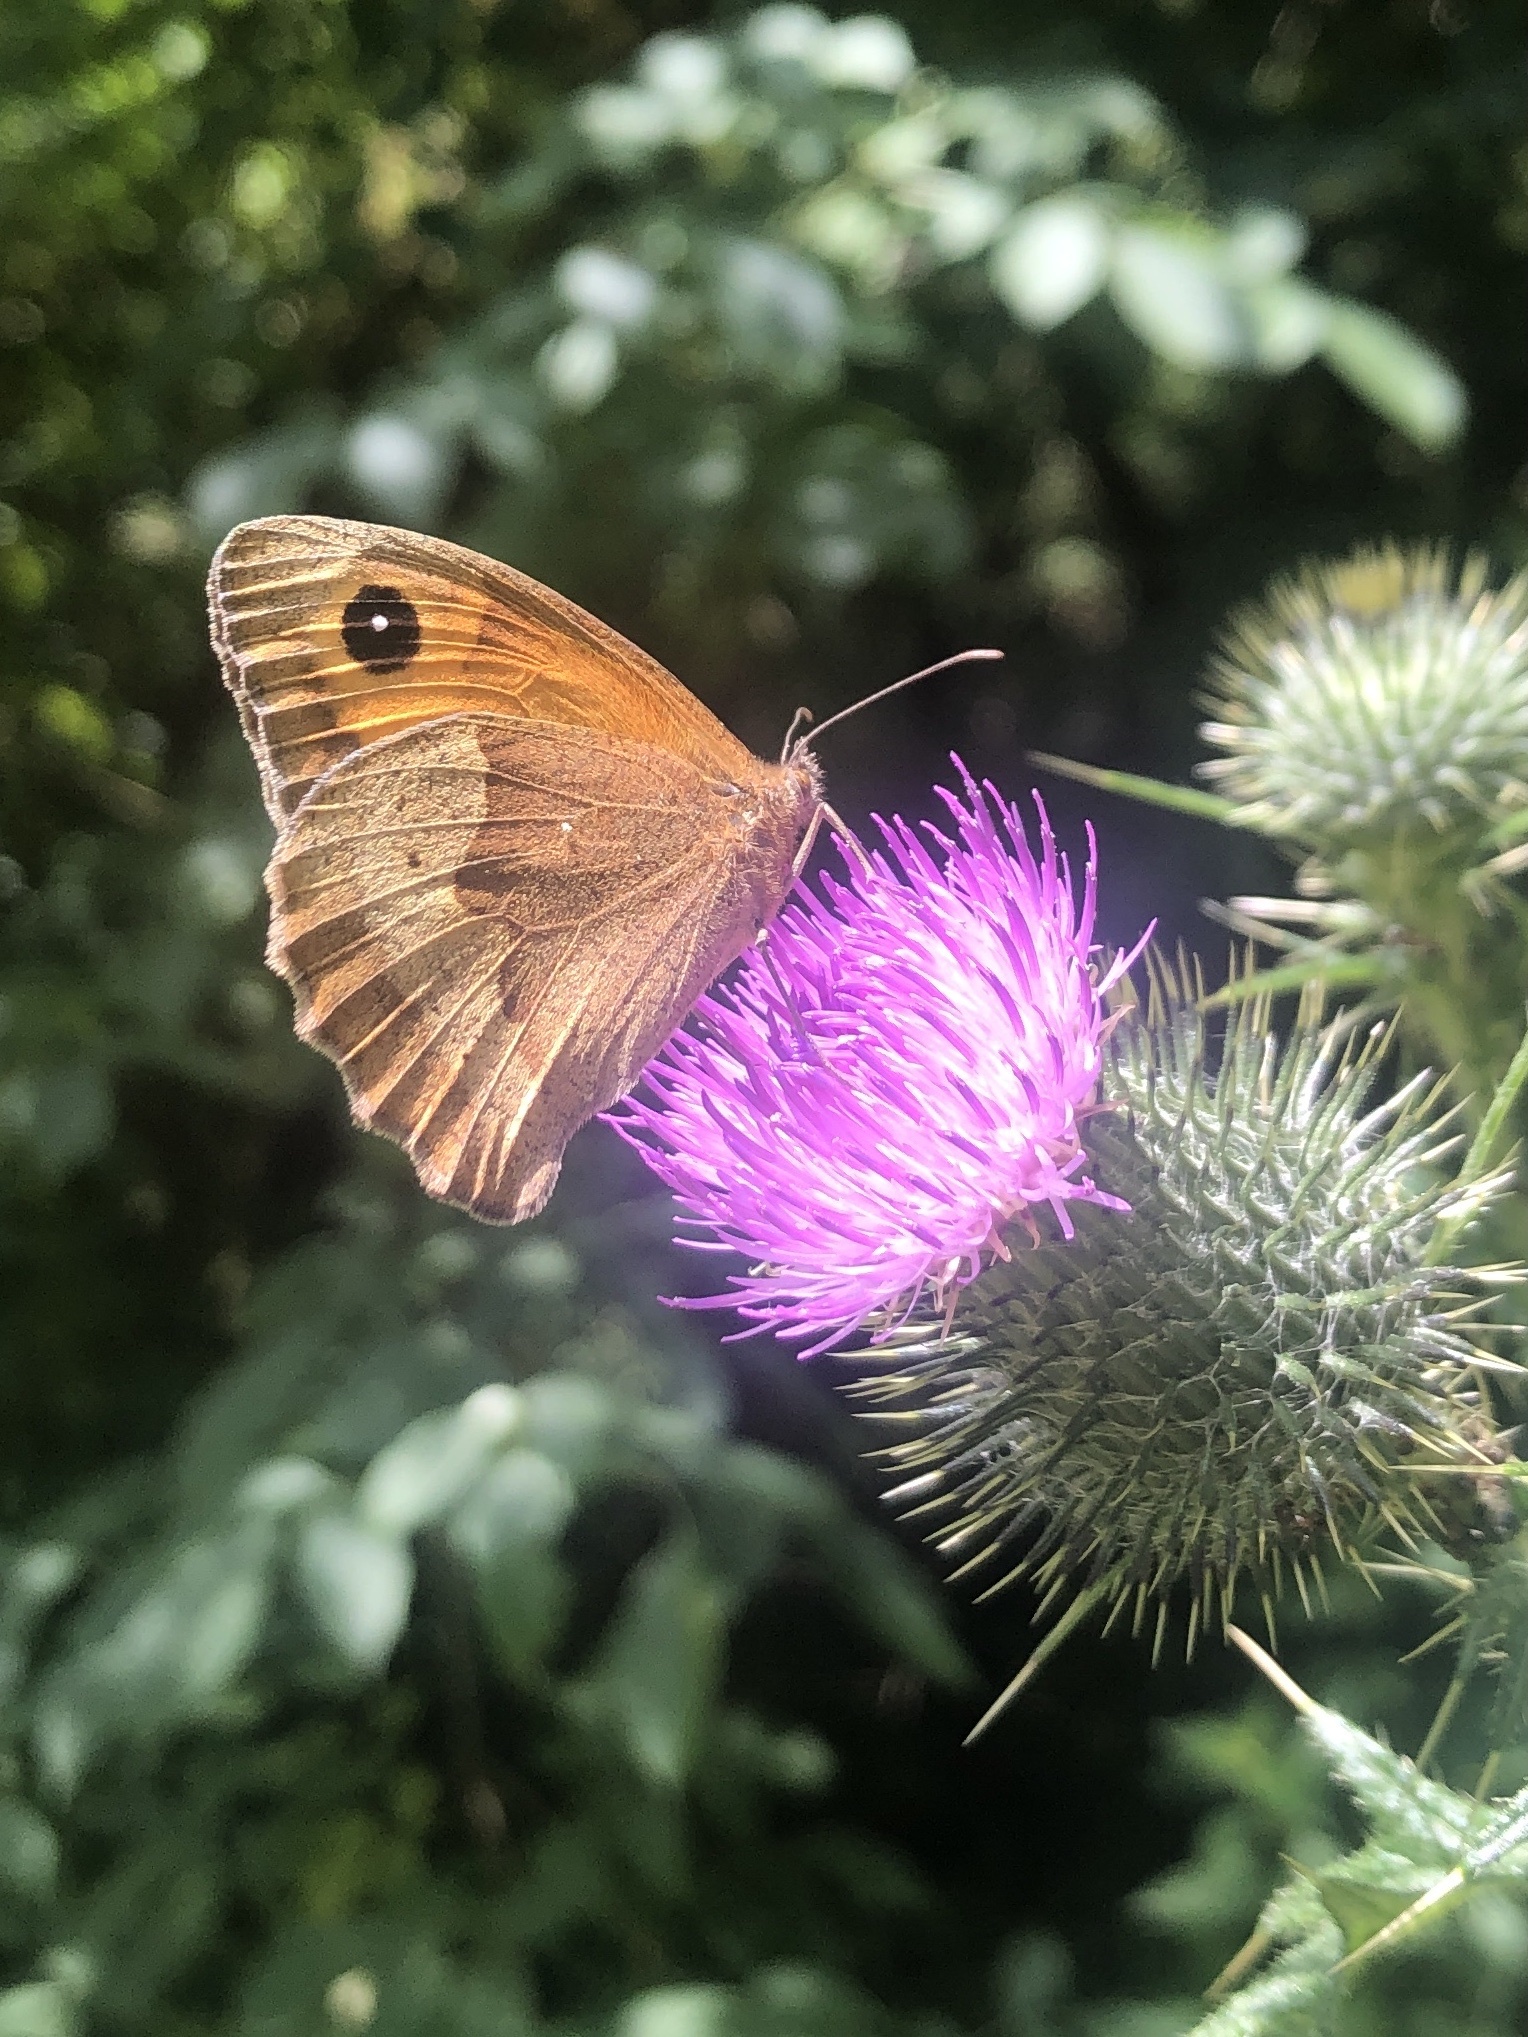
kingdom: Animalia
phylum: Arthropoda
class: Insecta
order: Lepidoptera
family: Nymphalidae
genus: Maniola
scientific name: Maniola jurtina
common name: Meadow brown
